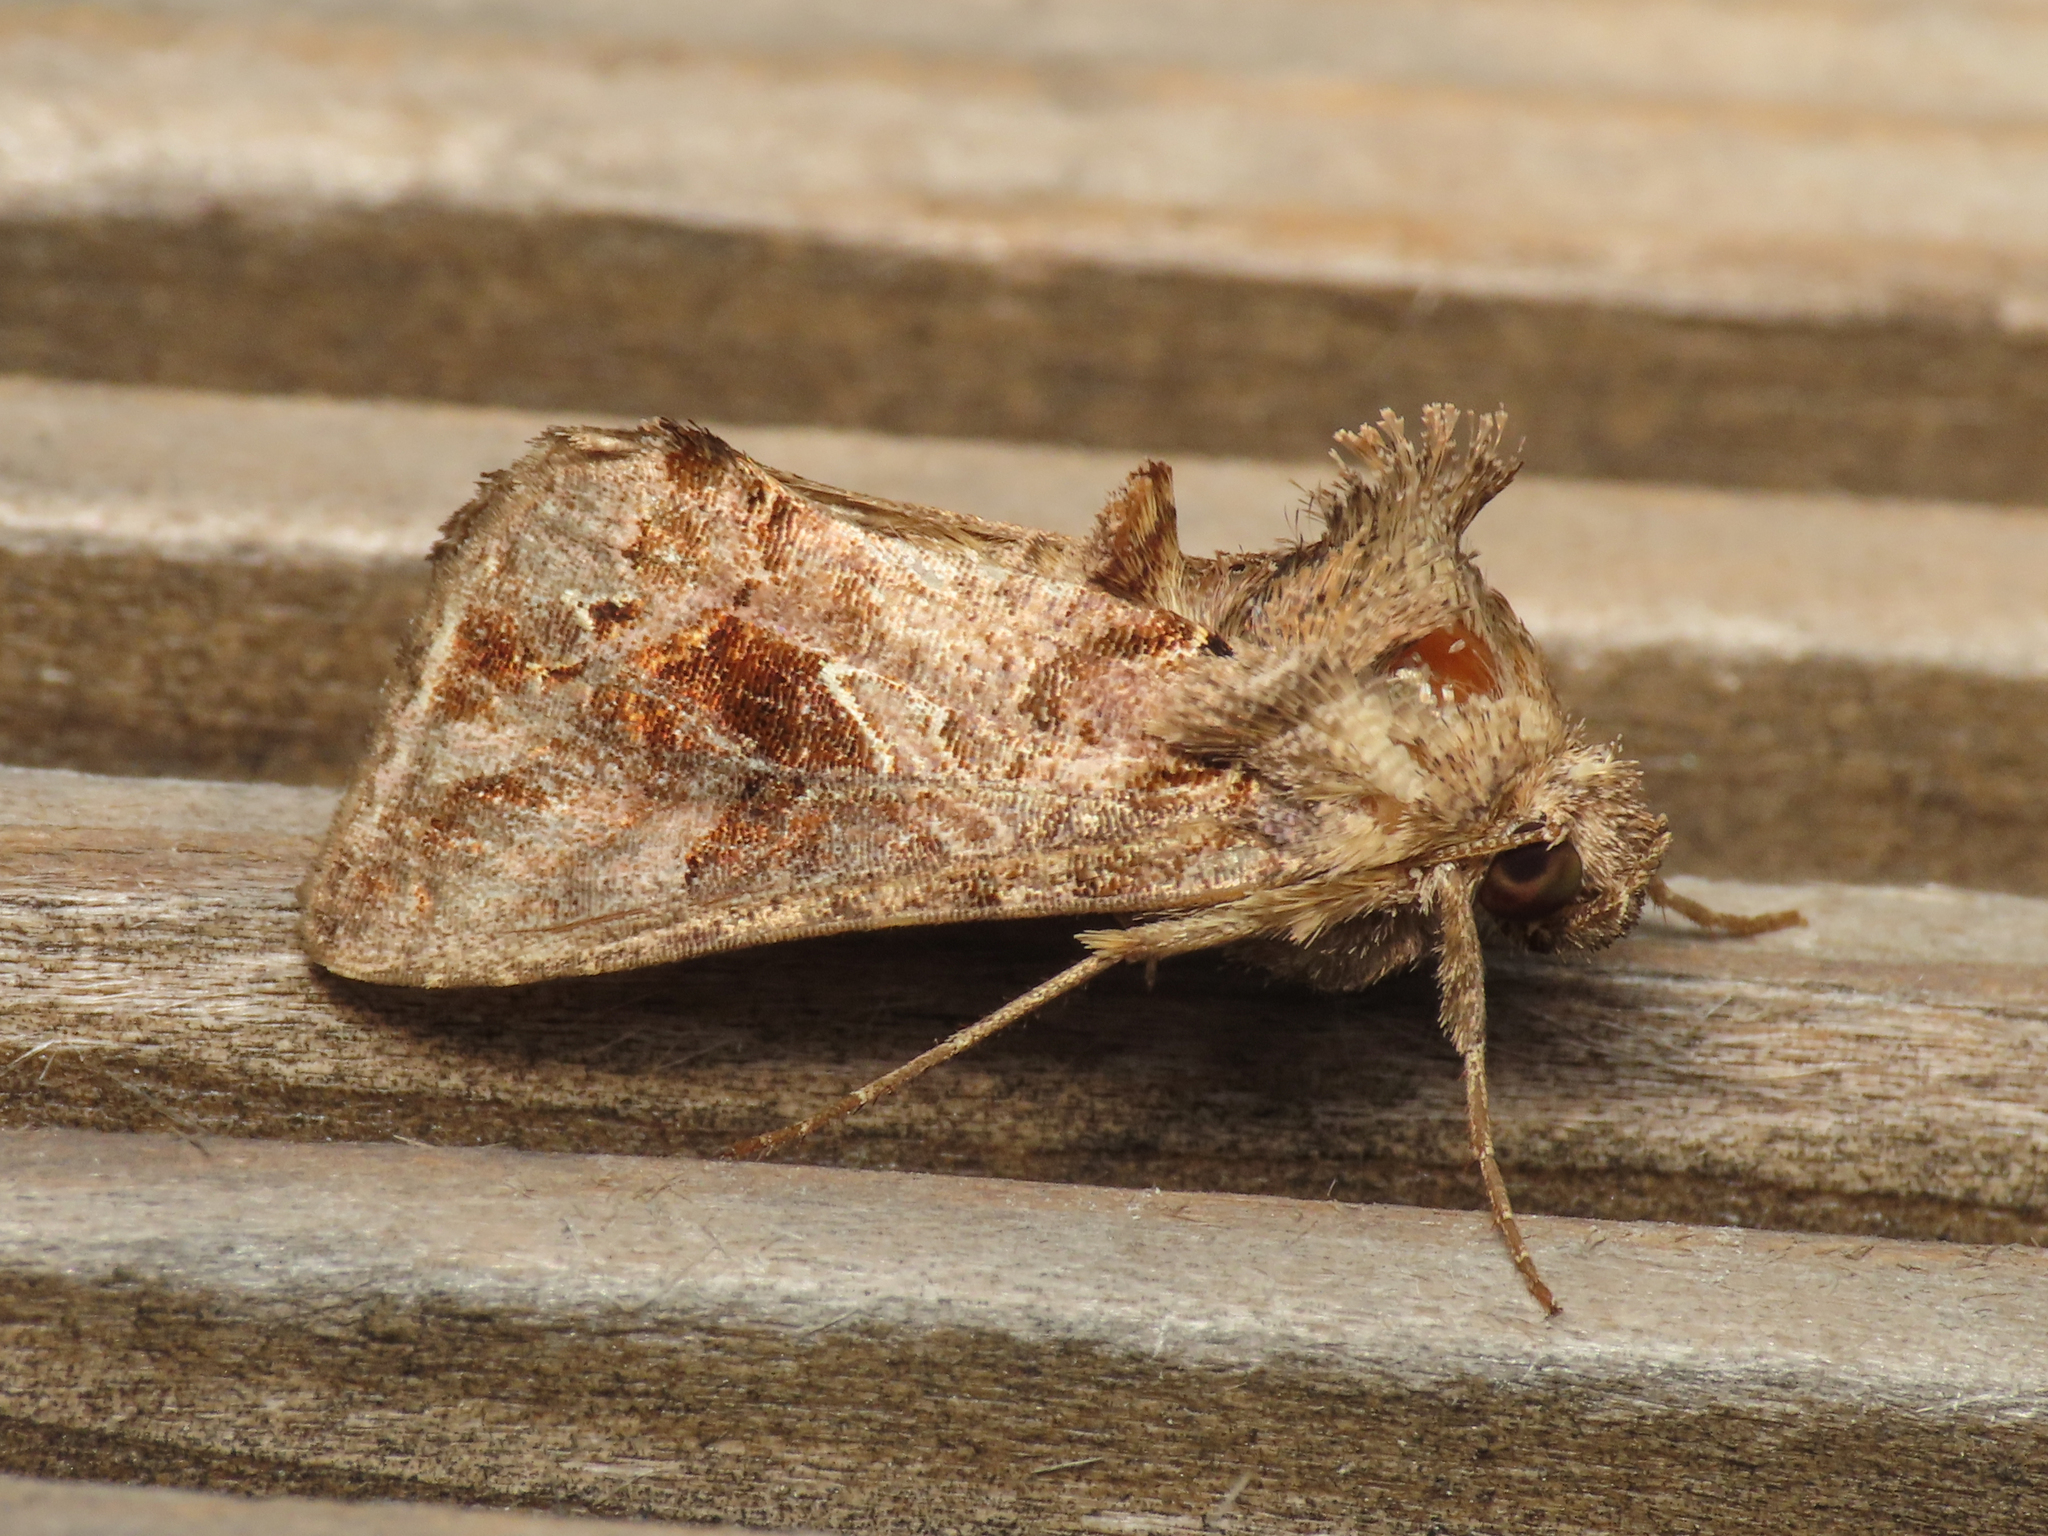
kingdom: Animalia
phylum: Arthropoda
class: Insecta
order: Lepidoptera
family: Noctuidae
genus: Ctenoplusia
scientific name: Ctenoplusia accentifera
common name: Accent gem
